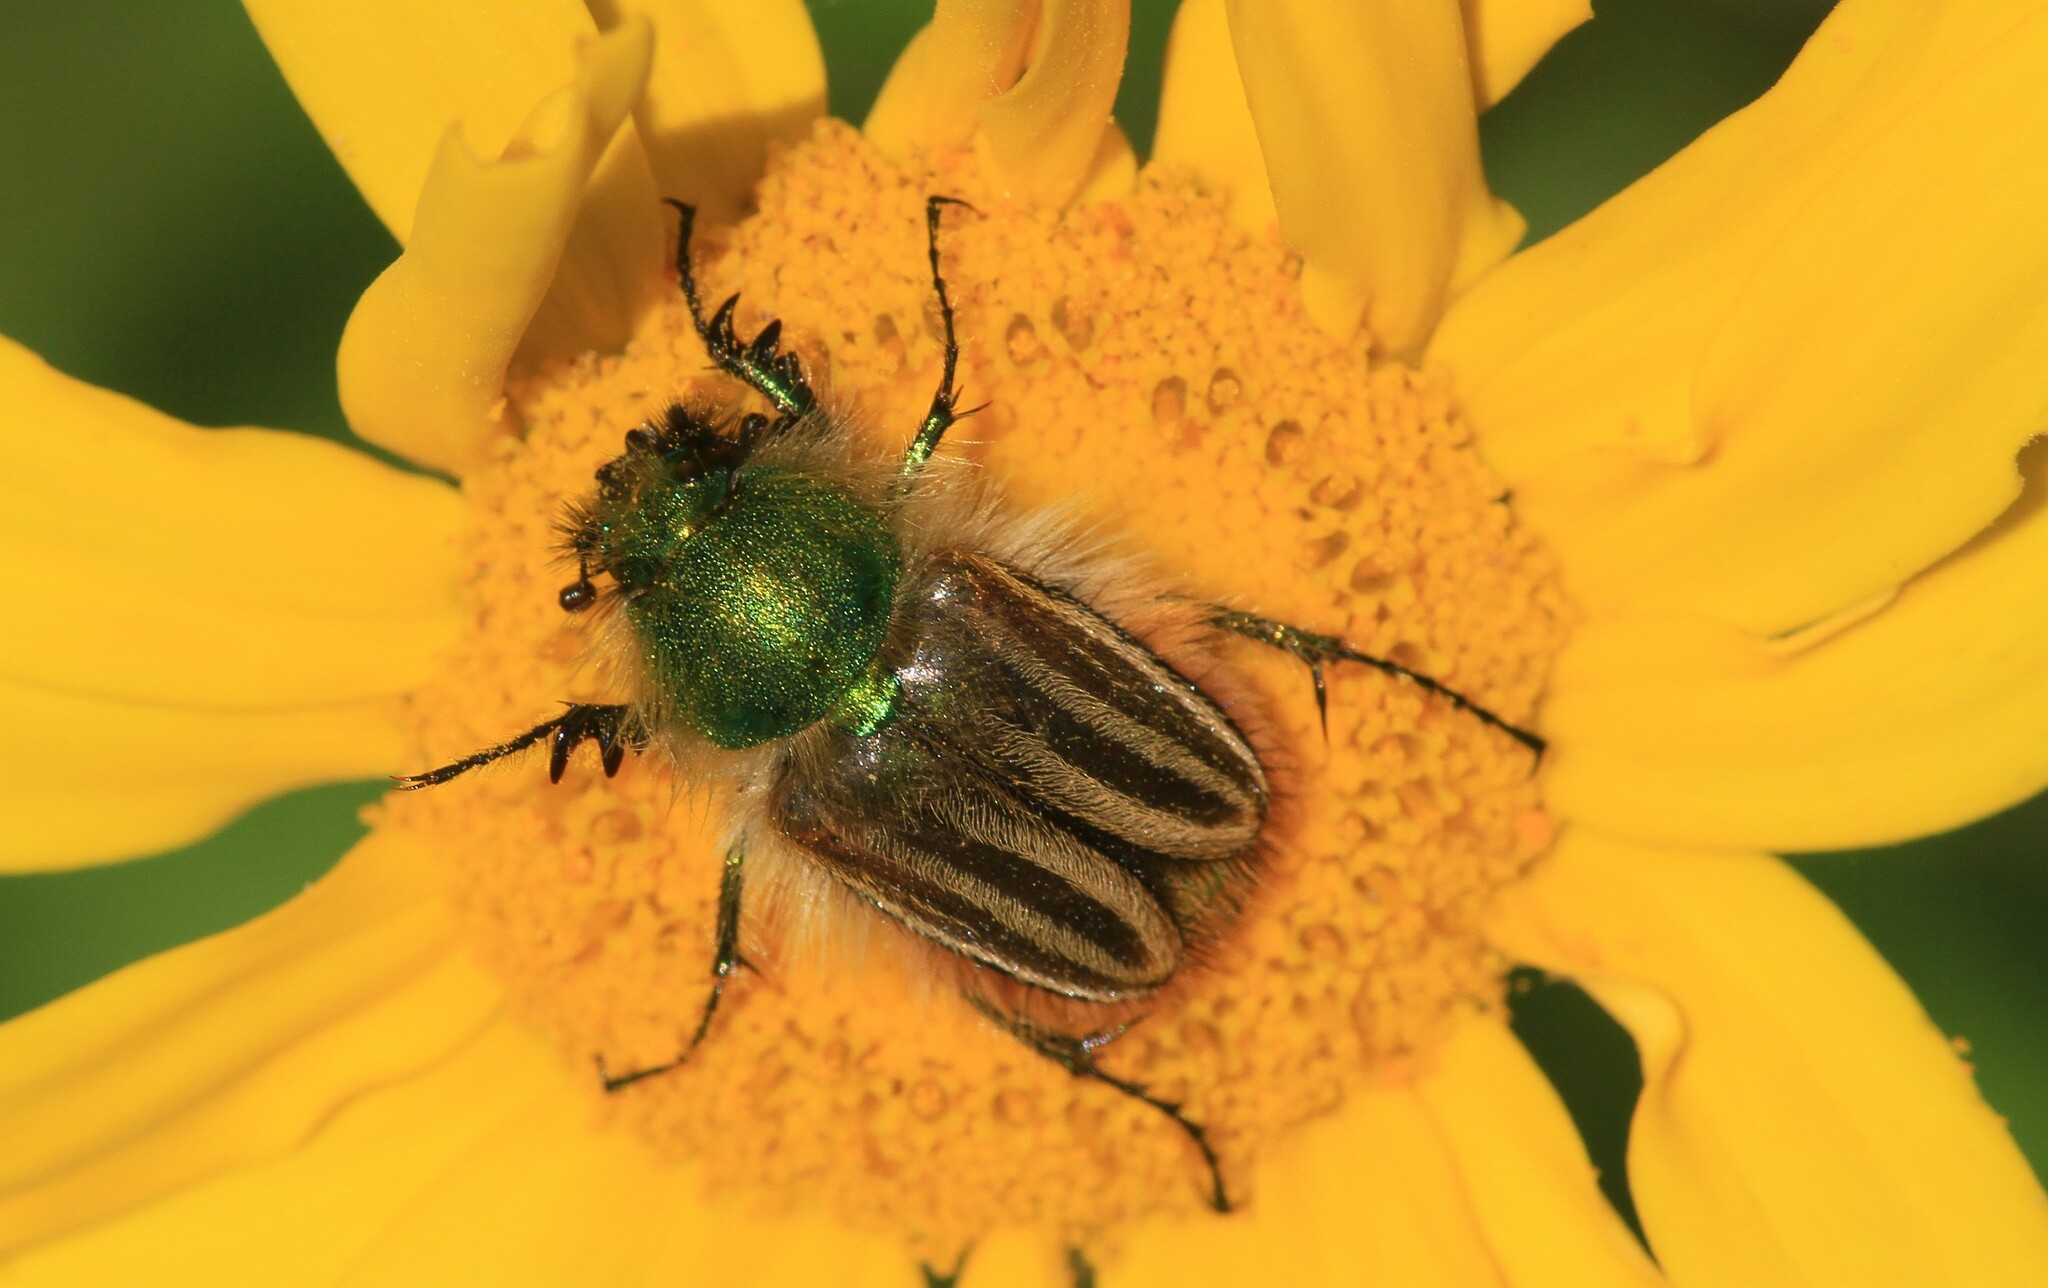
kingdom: Animalia
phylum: Arthropoda
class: Insecta
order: Coleoptera
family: Glaphyridae
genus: Eulasia
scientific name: Eulasia pareyssei
